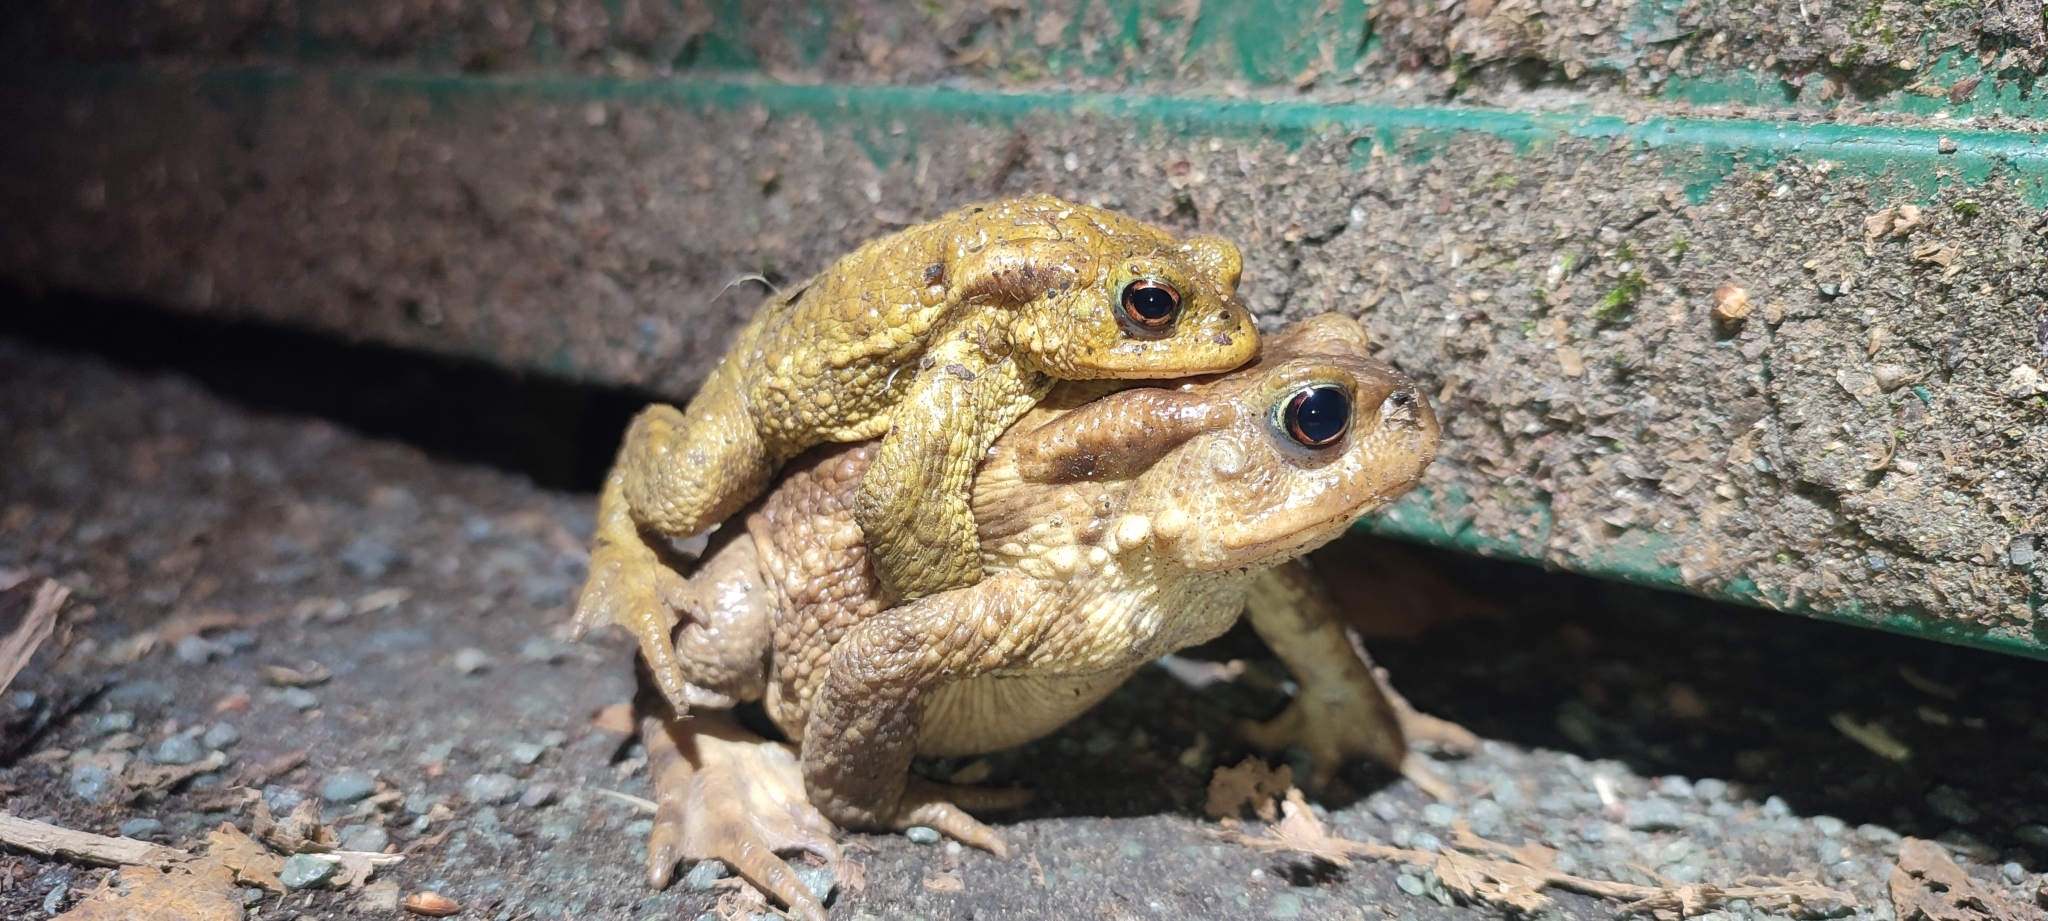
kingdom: Animalia
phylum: Chordata
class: Amphibia
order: Anura
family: Bufonidae
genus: Bufo
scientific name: Bufo spinosus
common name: Western common toad
